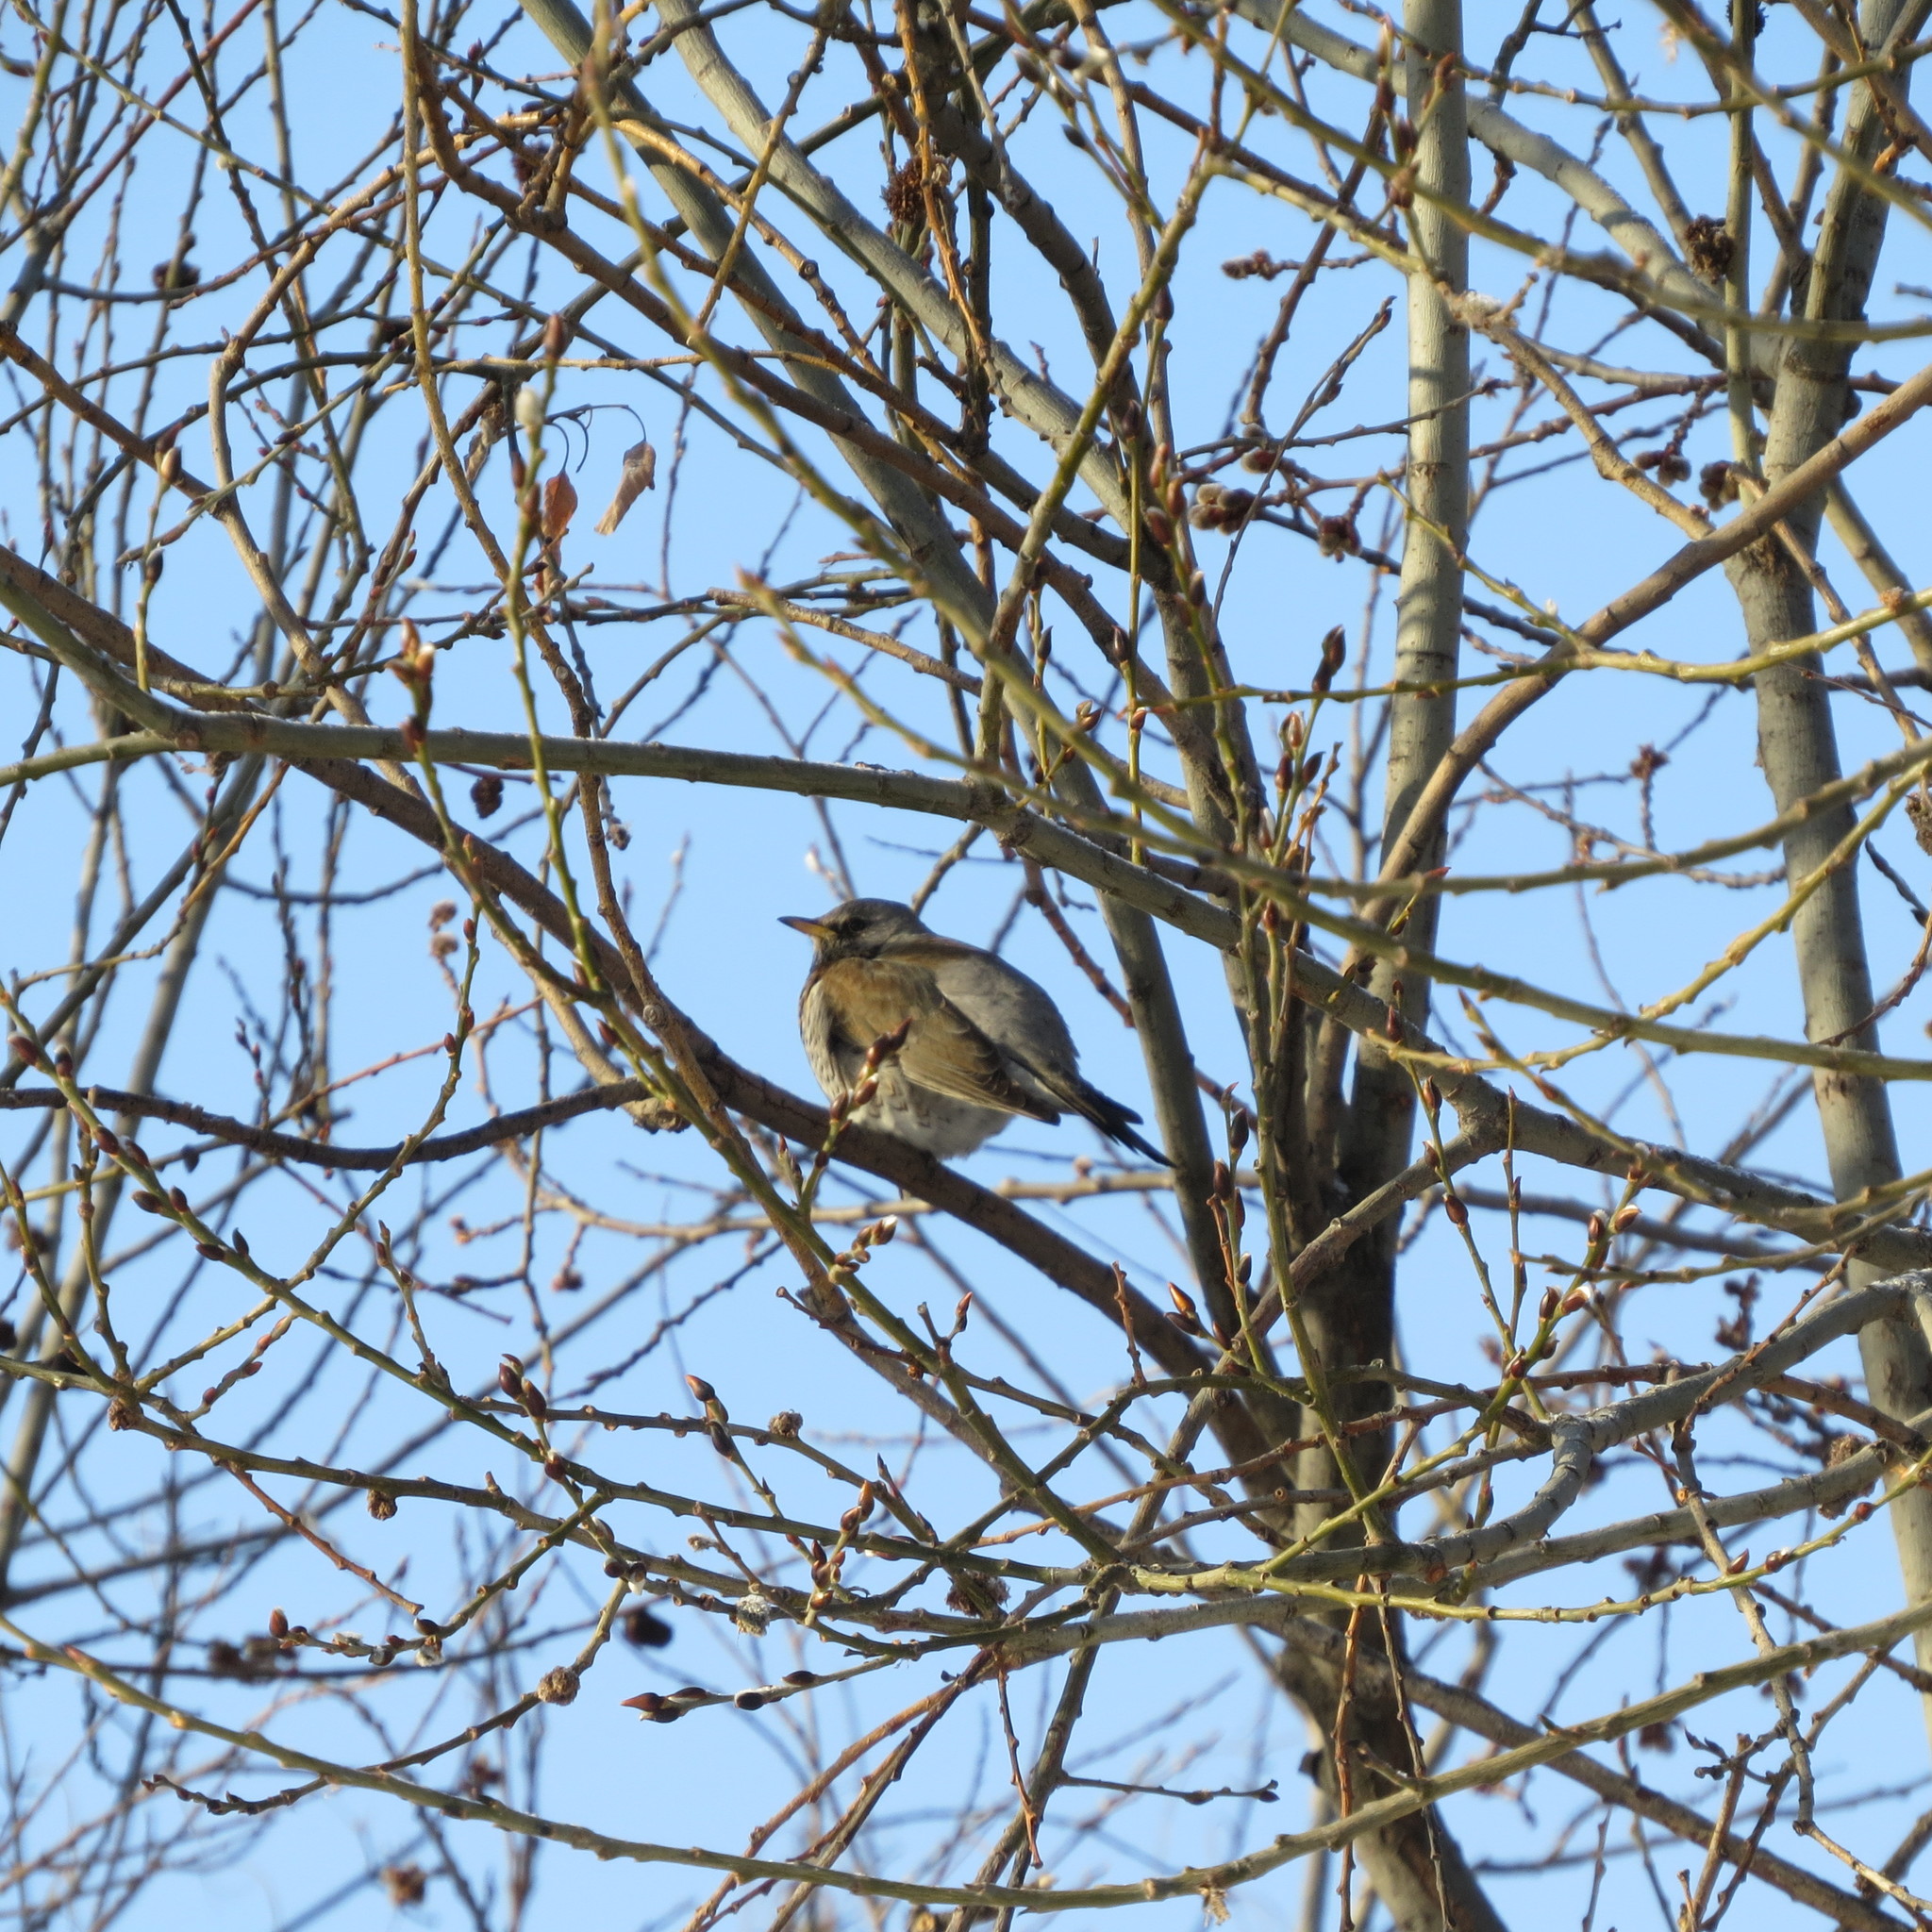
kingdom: Animalia
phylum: Chordata
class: Aves
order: Passeriformes
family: Turdidae
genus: Turdus
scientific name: Turdus pilaris
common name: Fieldfare
